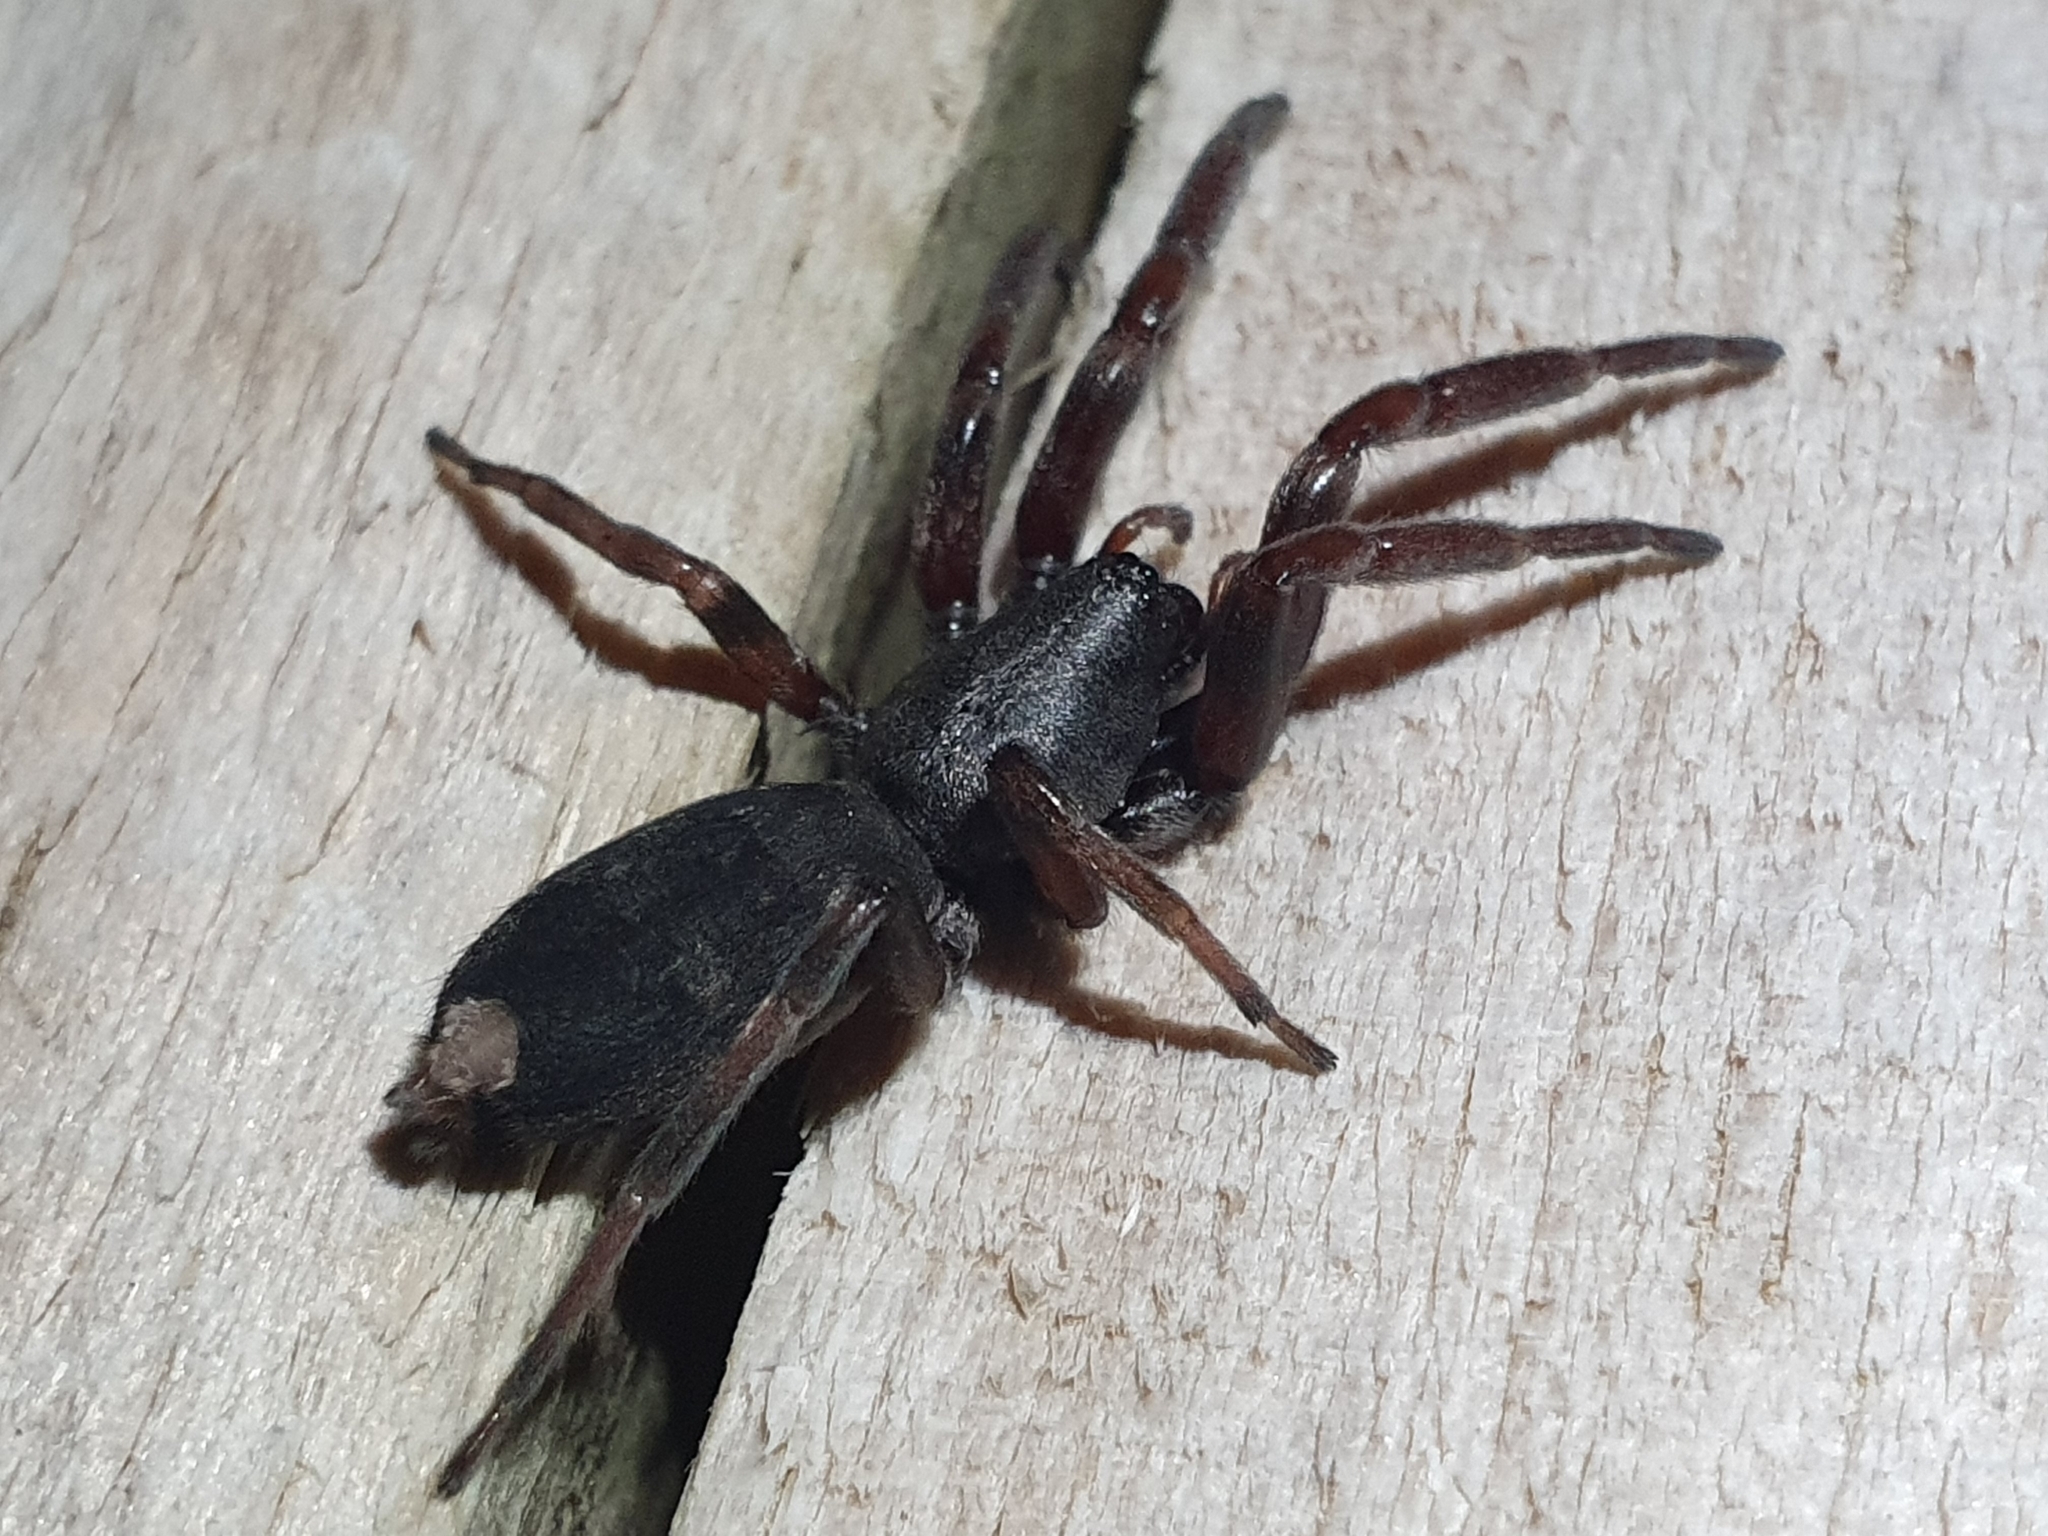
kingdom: Animalia
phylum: Arthropoda
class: Arachnida
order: Araneae
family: Lamponidae
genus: Lampona
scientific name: Lampona murina
